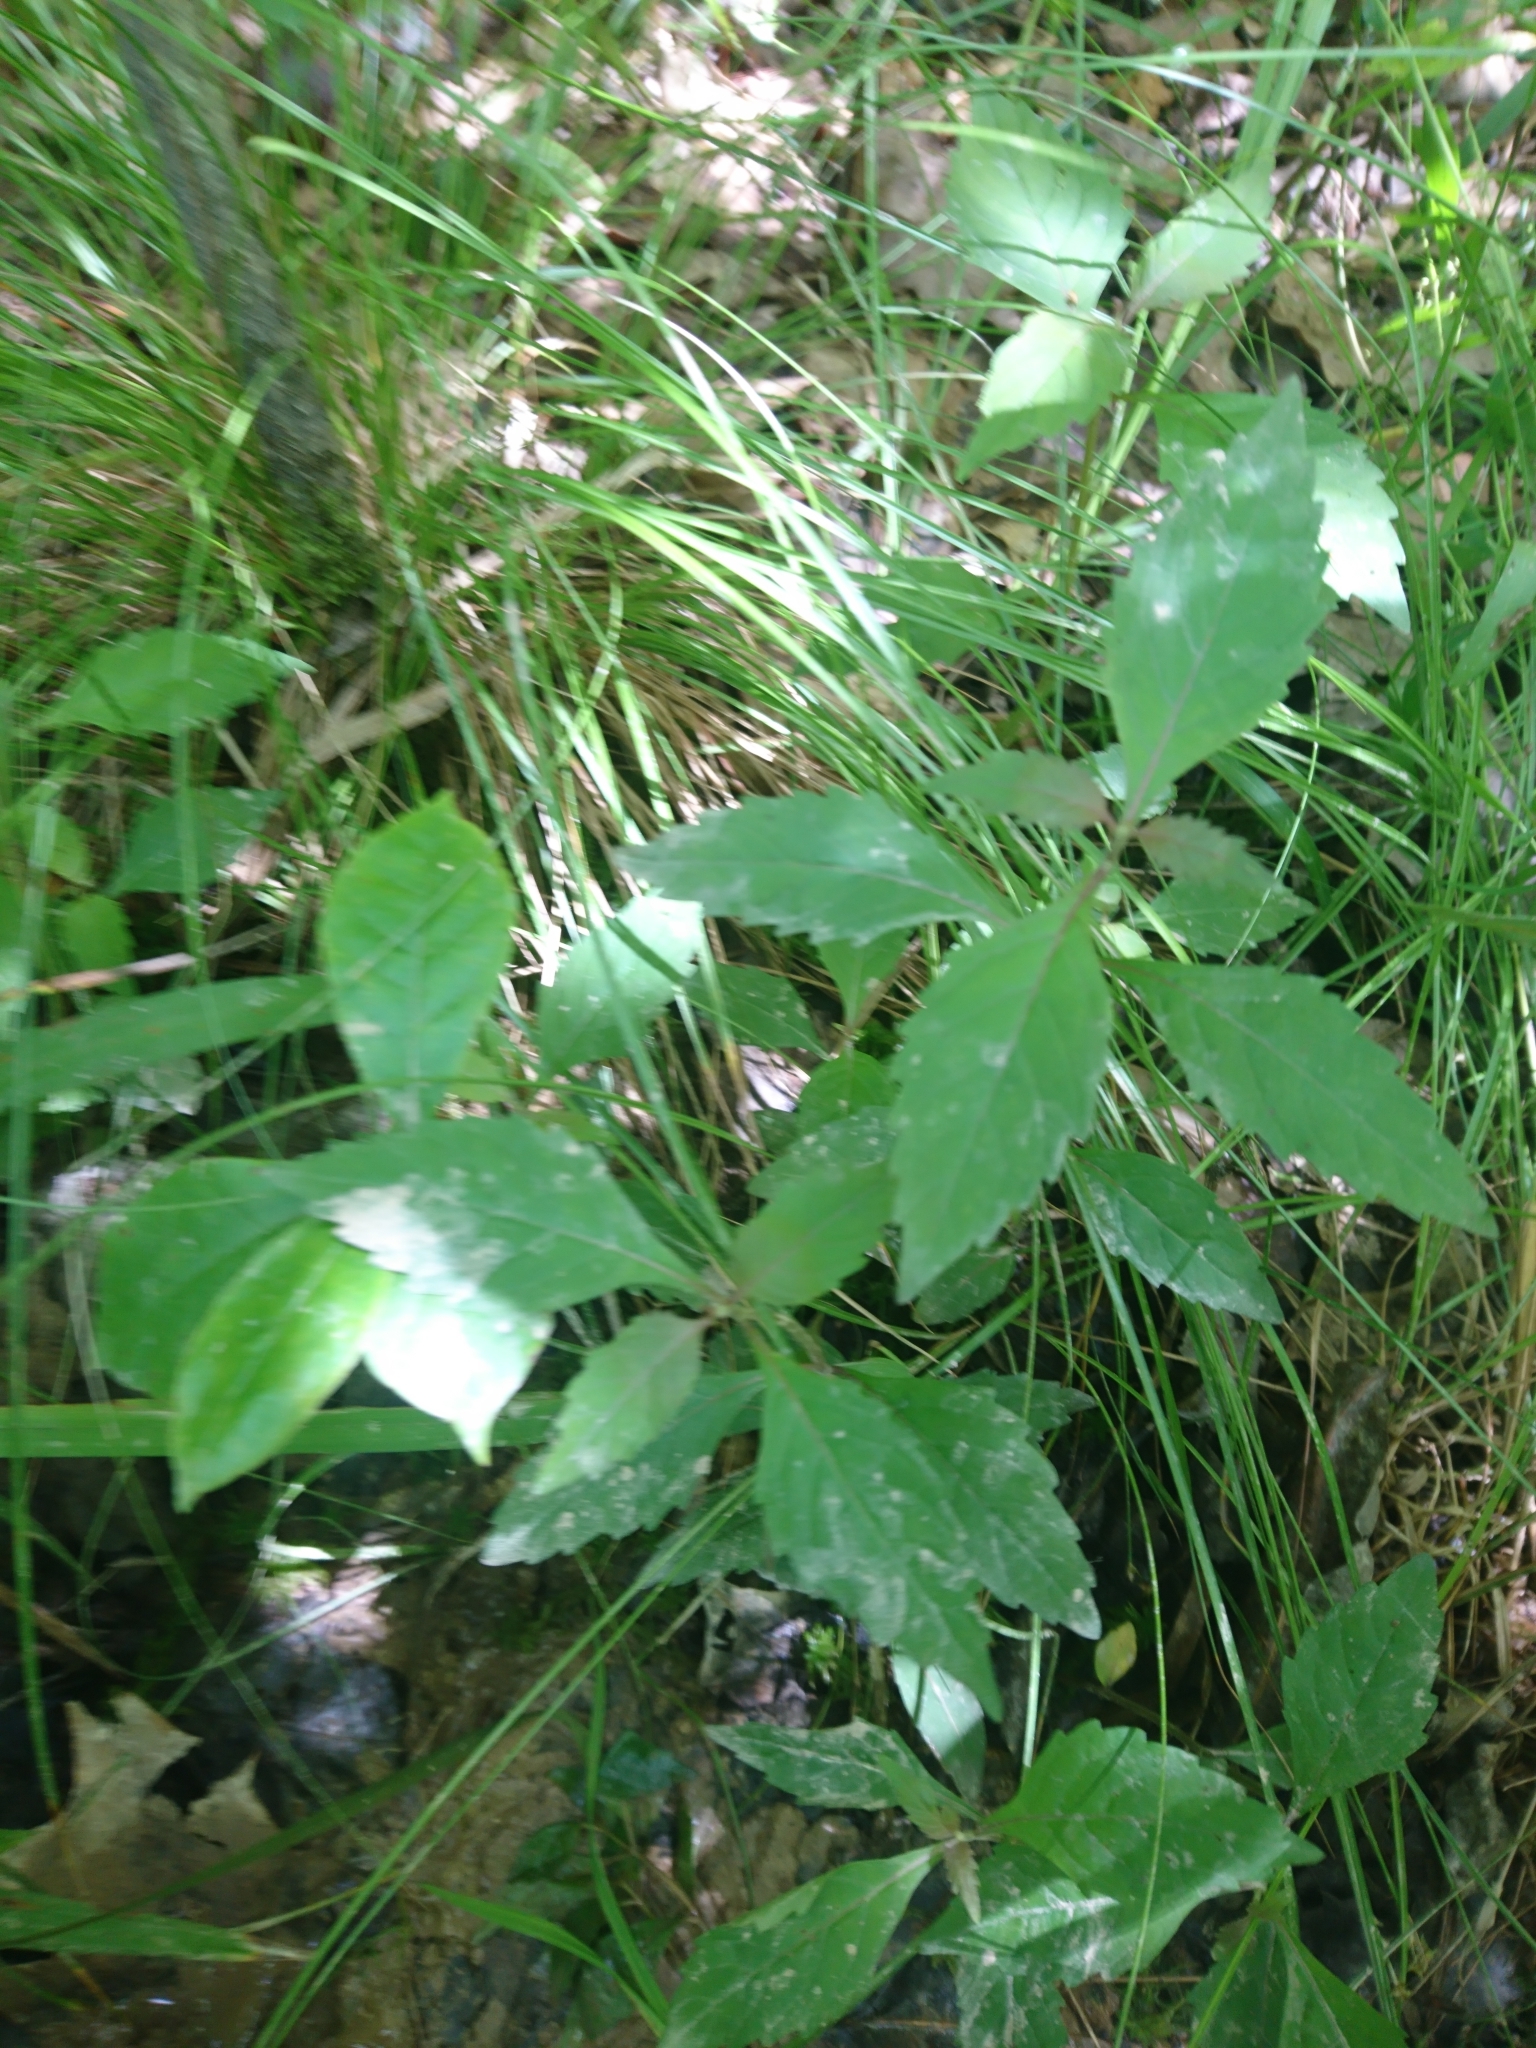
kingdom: Plantae
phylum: Tracheophyta
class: Magnoliopsida
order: Lamiales
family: Lamiaceae
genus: Lycopus
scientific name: Lycopus uniflorus
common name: Northern bugleweed
